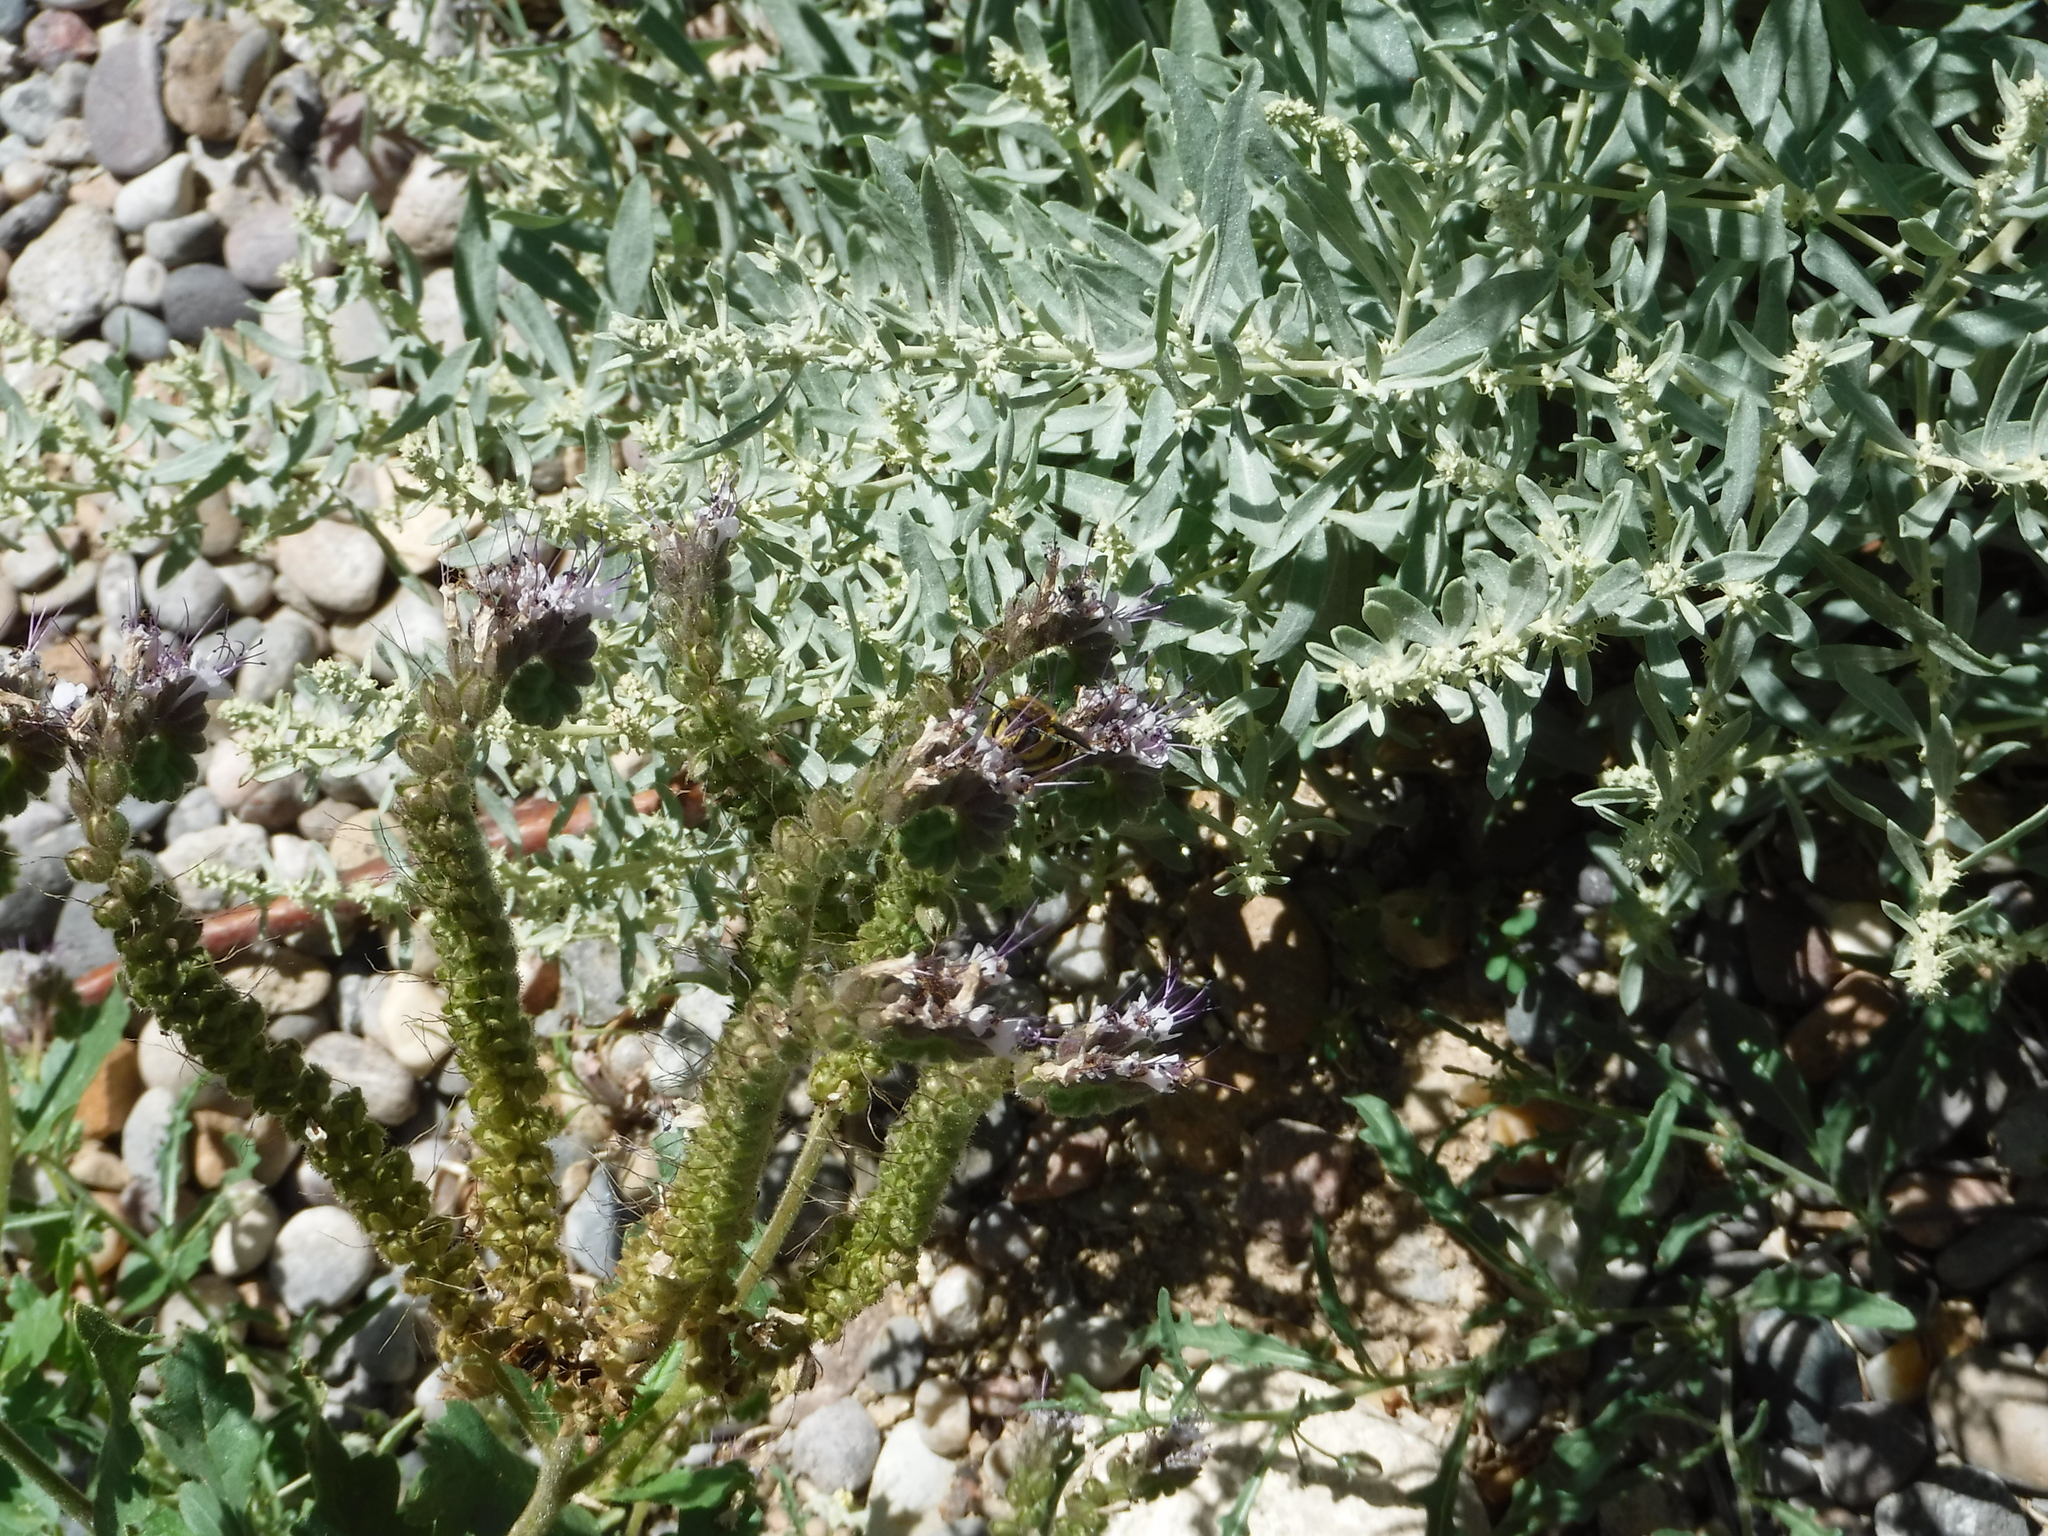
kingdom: Animalia
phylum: Arthropoda
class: Insecta
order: Hymenoptera
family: Megachilidae
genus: Anthidium
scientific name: Anthidium
